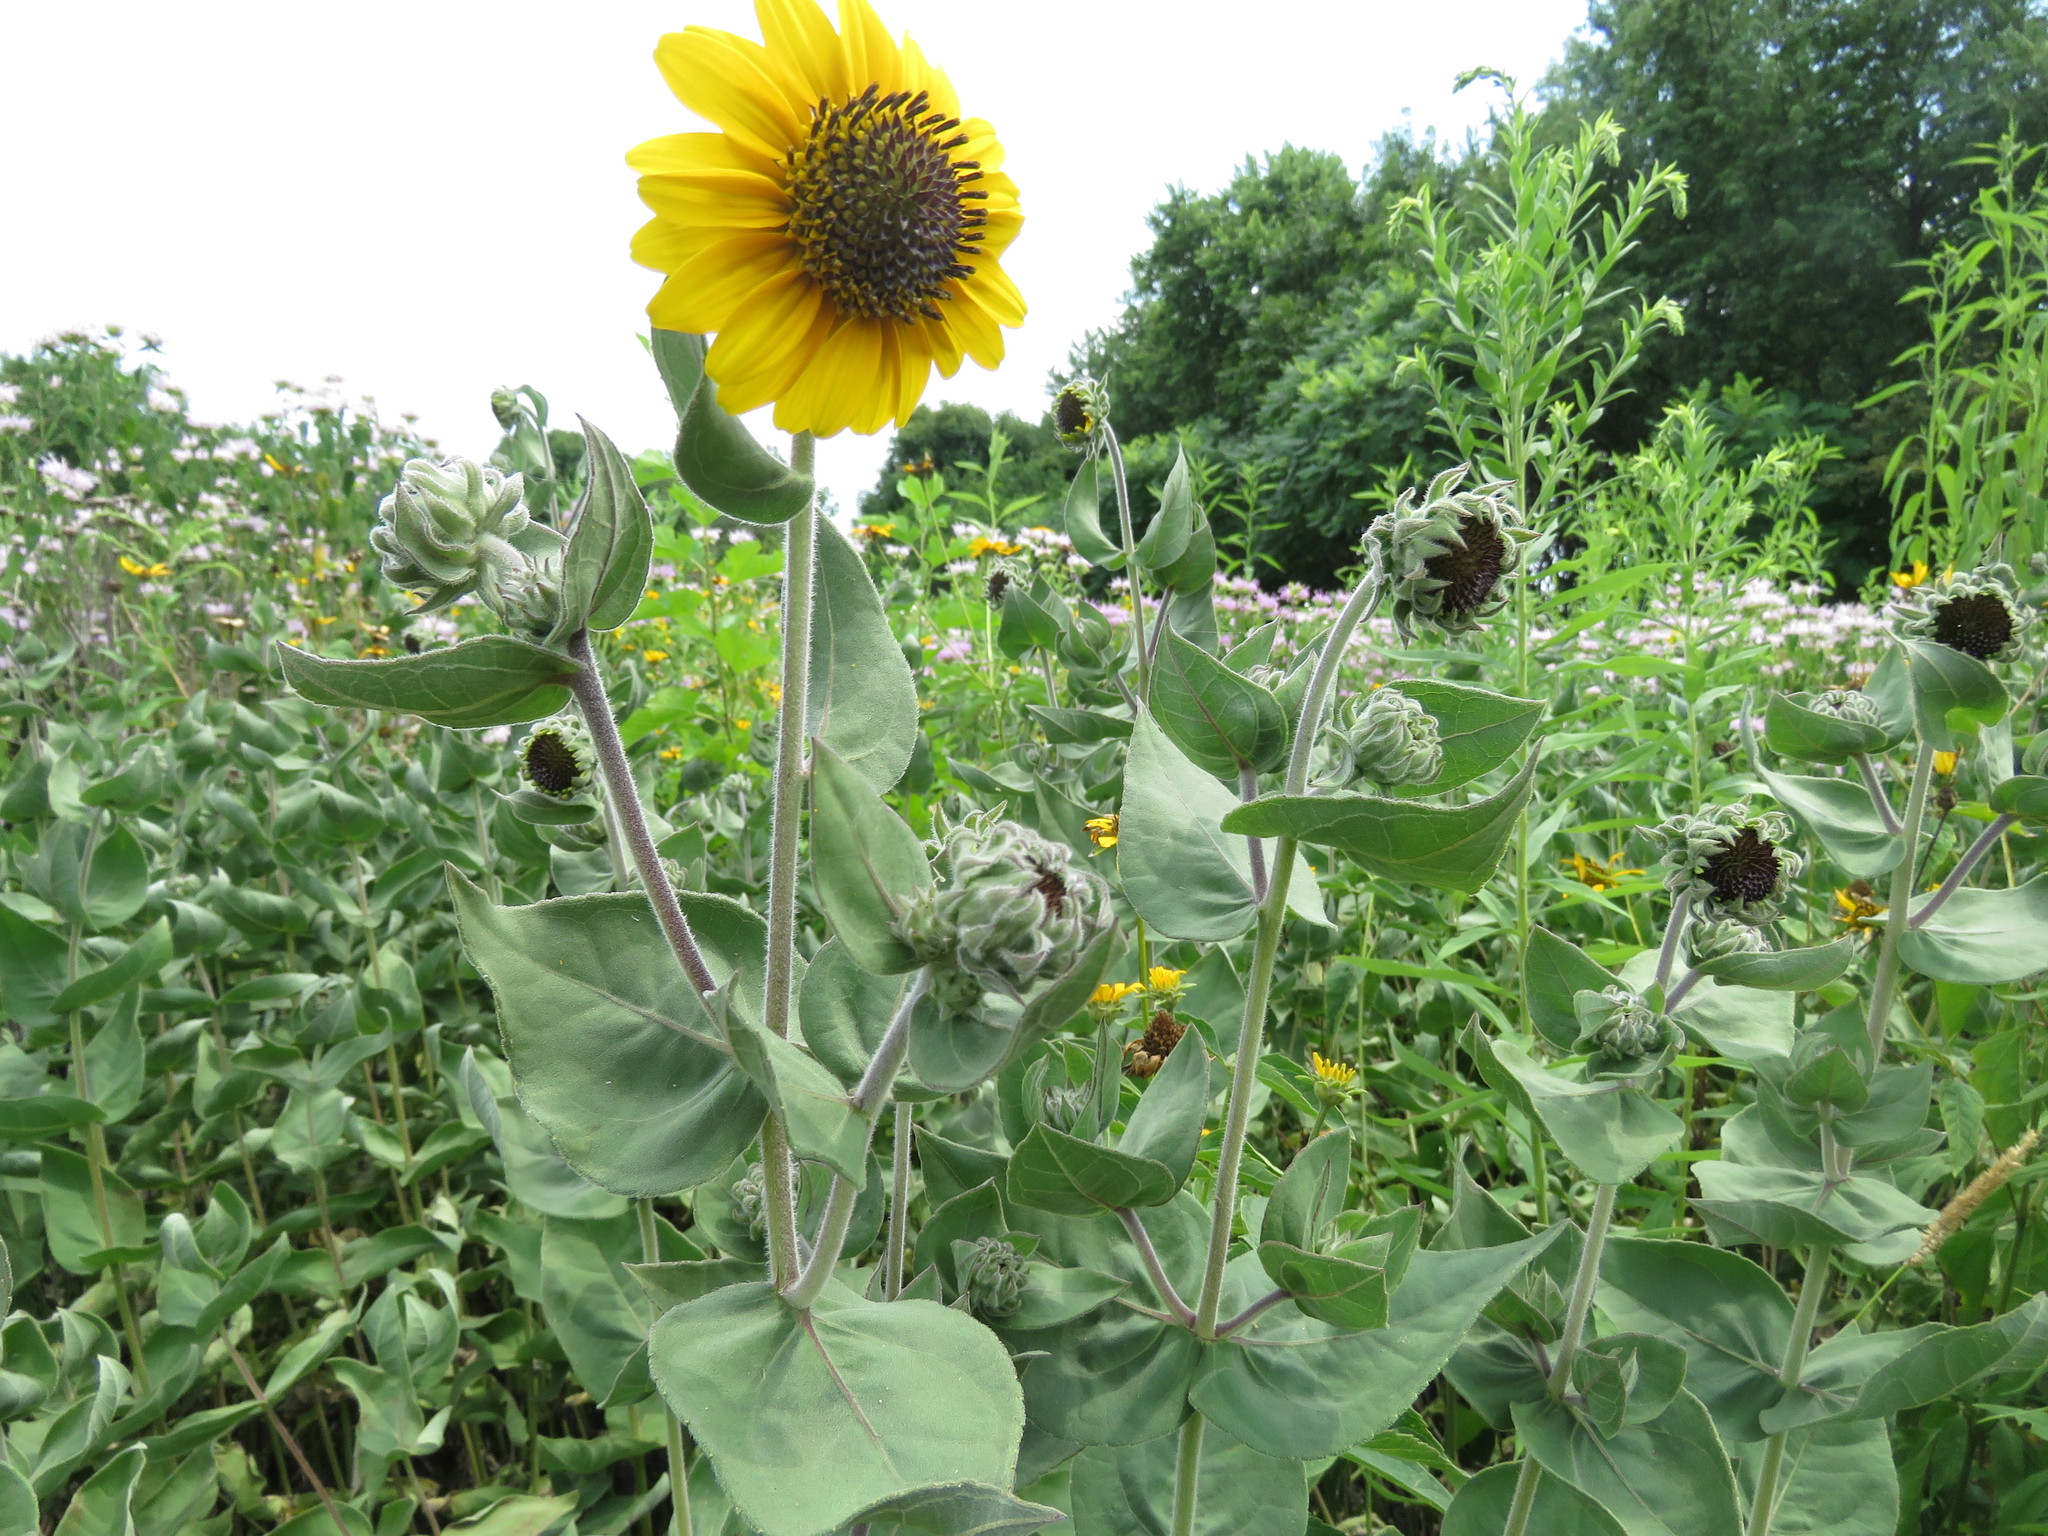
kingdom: Plantae
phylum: Tracheophyta
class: Magnoliopsida
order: Asterales
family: Asteraceae
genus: Helianthus
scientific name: Helianthus mollis
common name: Ashy sunflower
